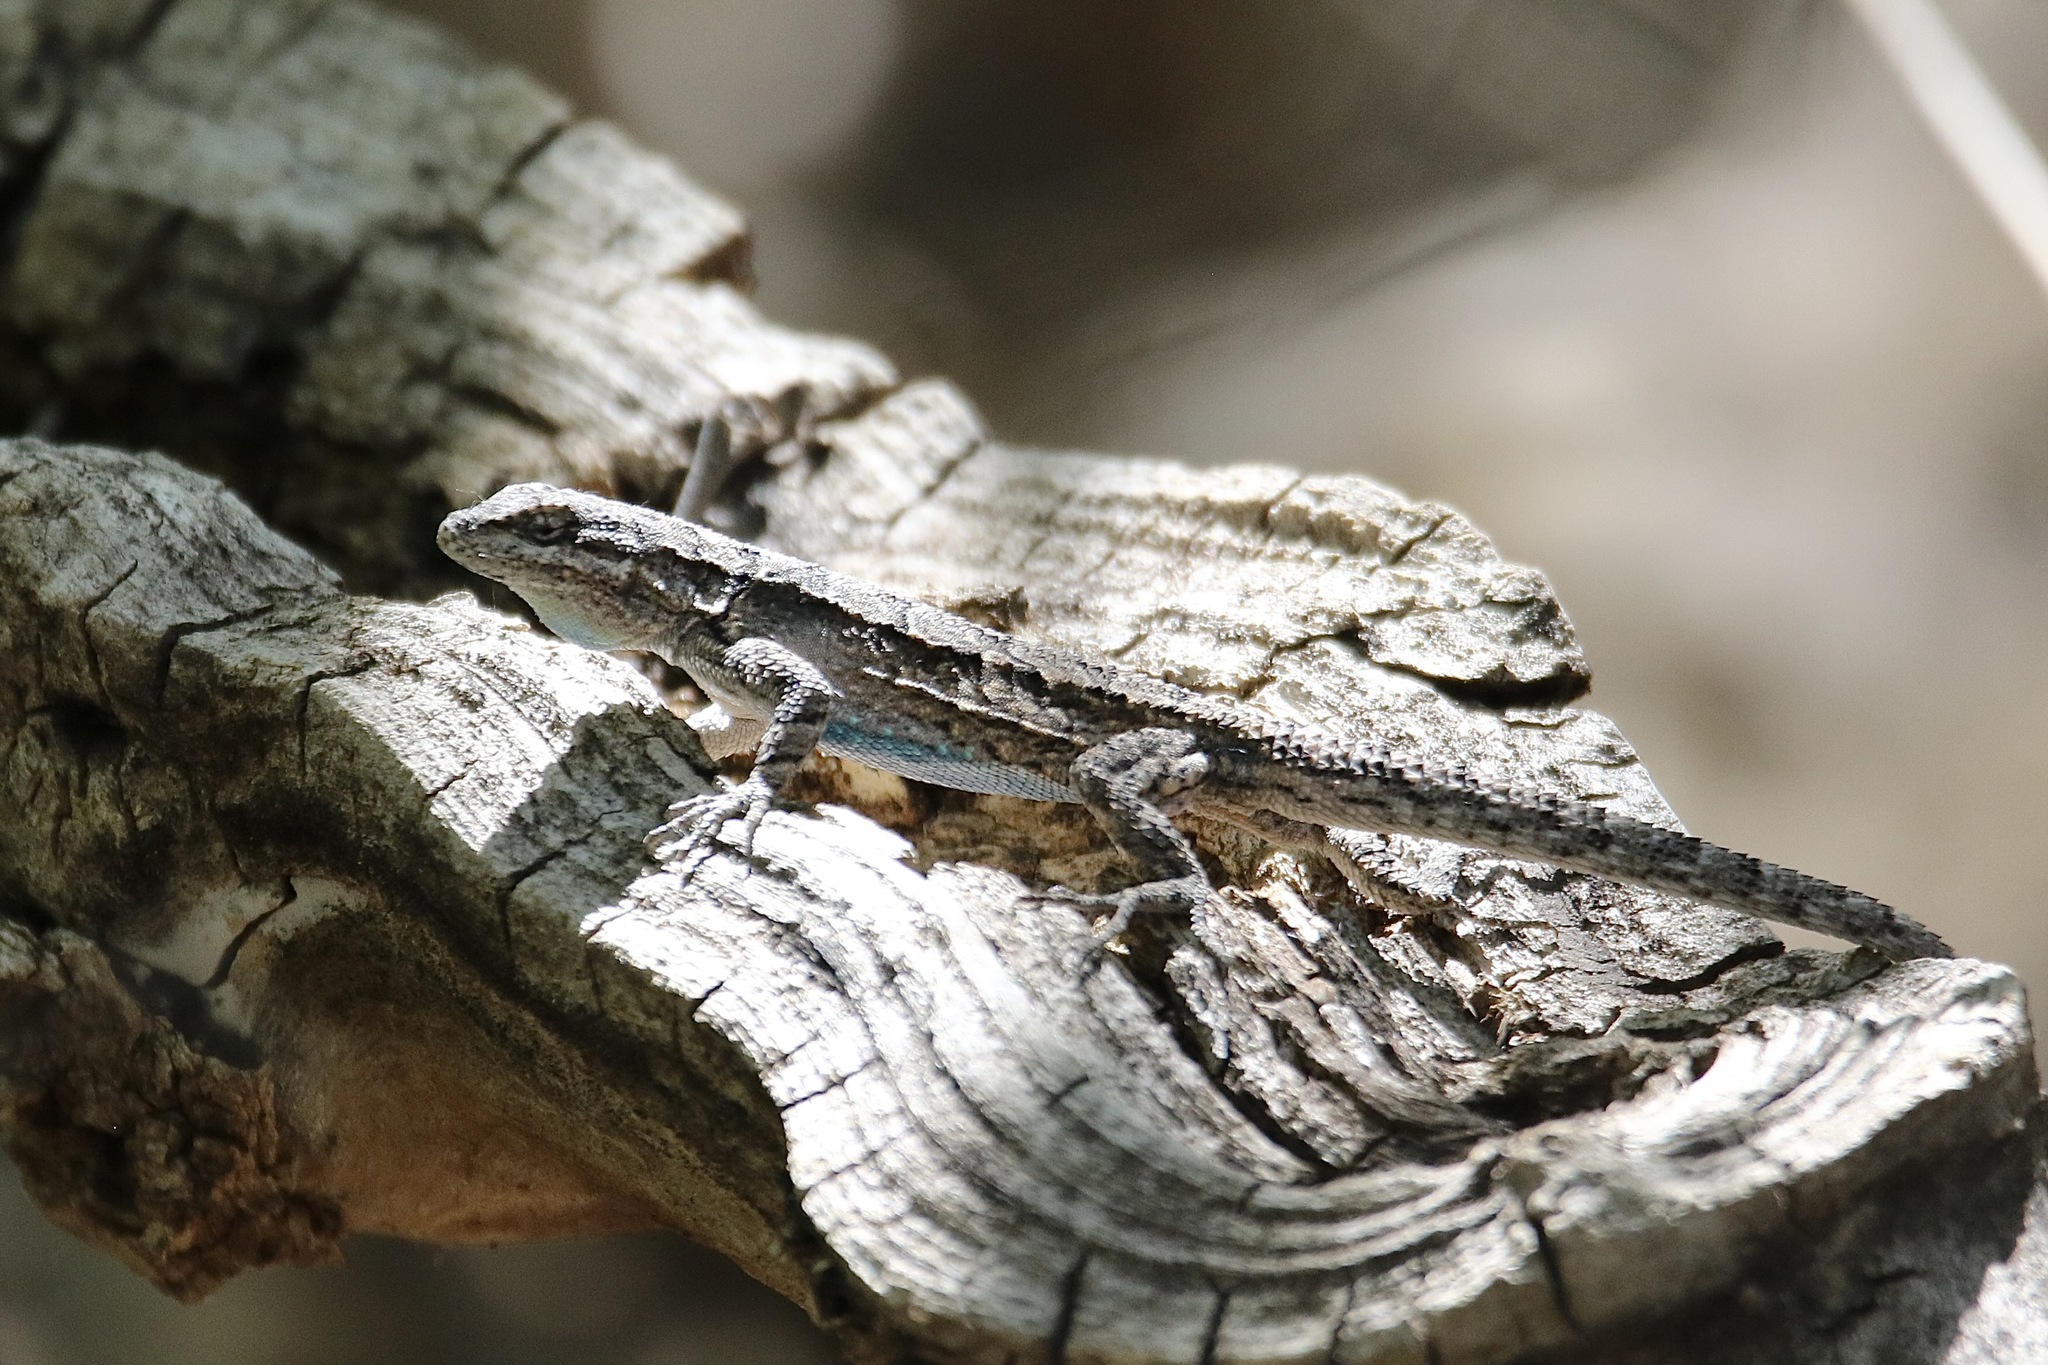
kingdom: Animalia
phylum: Chordata
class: Squamata
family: Phrynosomatidae
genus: Urosaurus
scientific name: Urosaurus ornatus
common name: Ornate tree lizard
